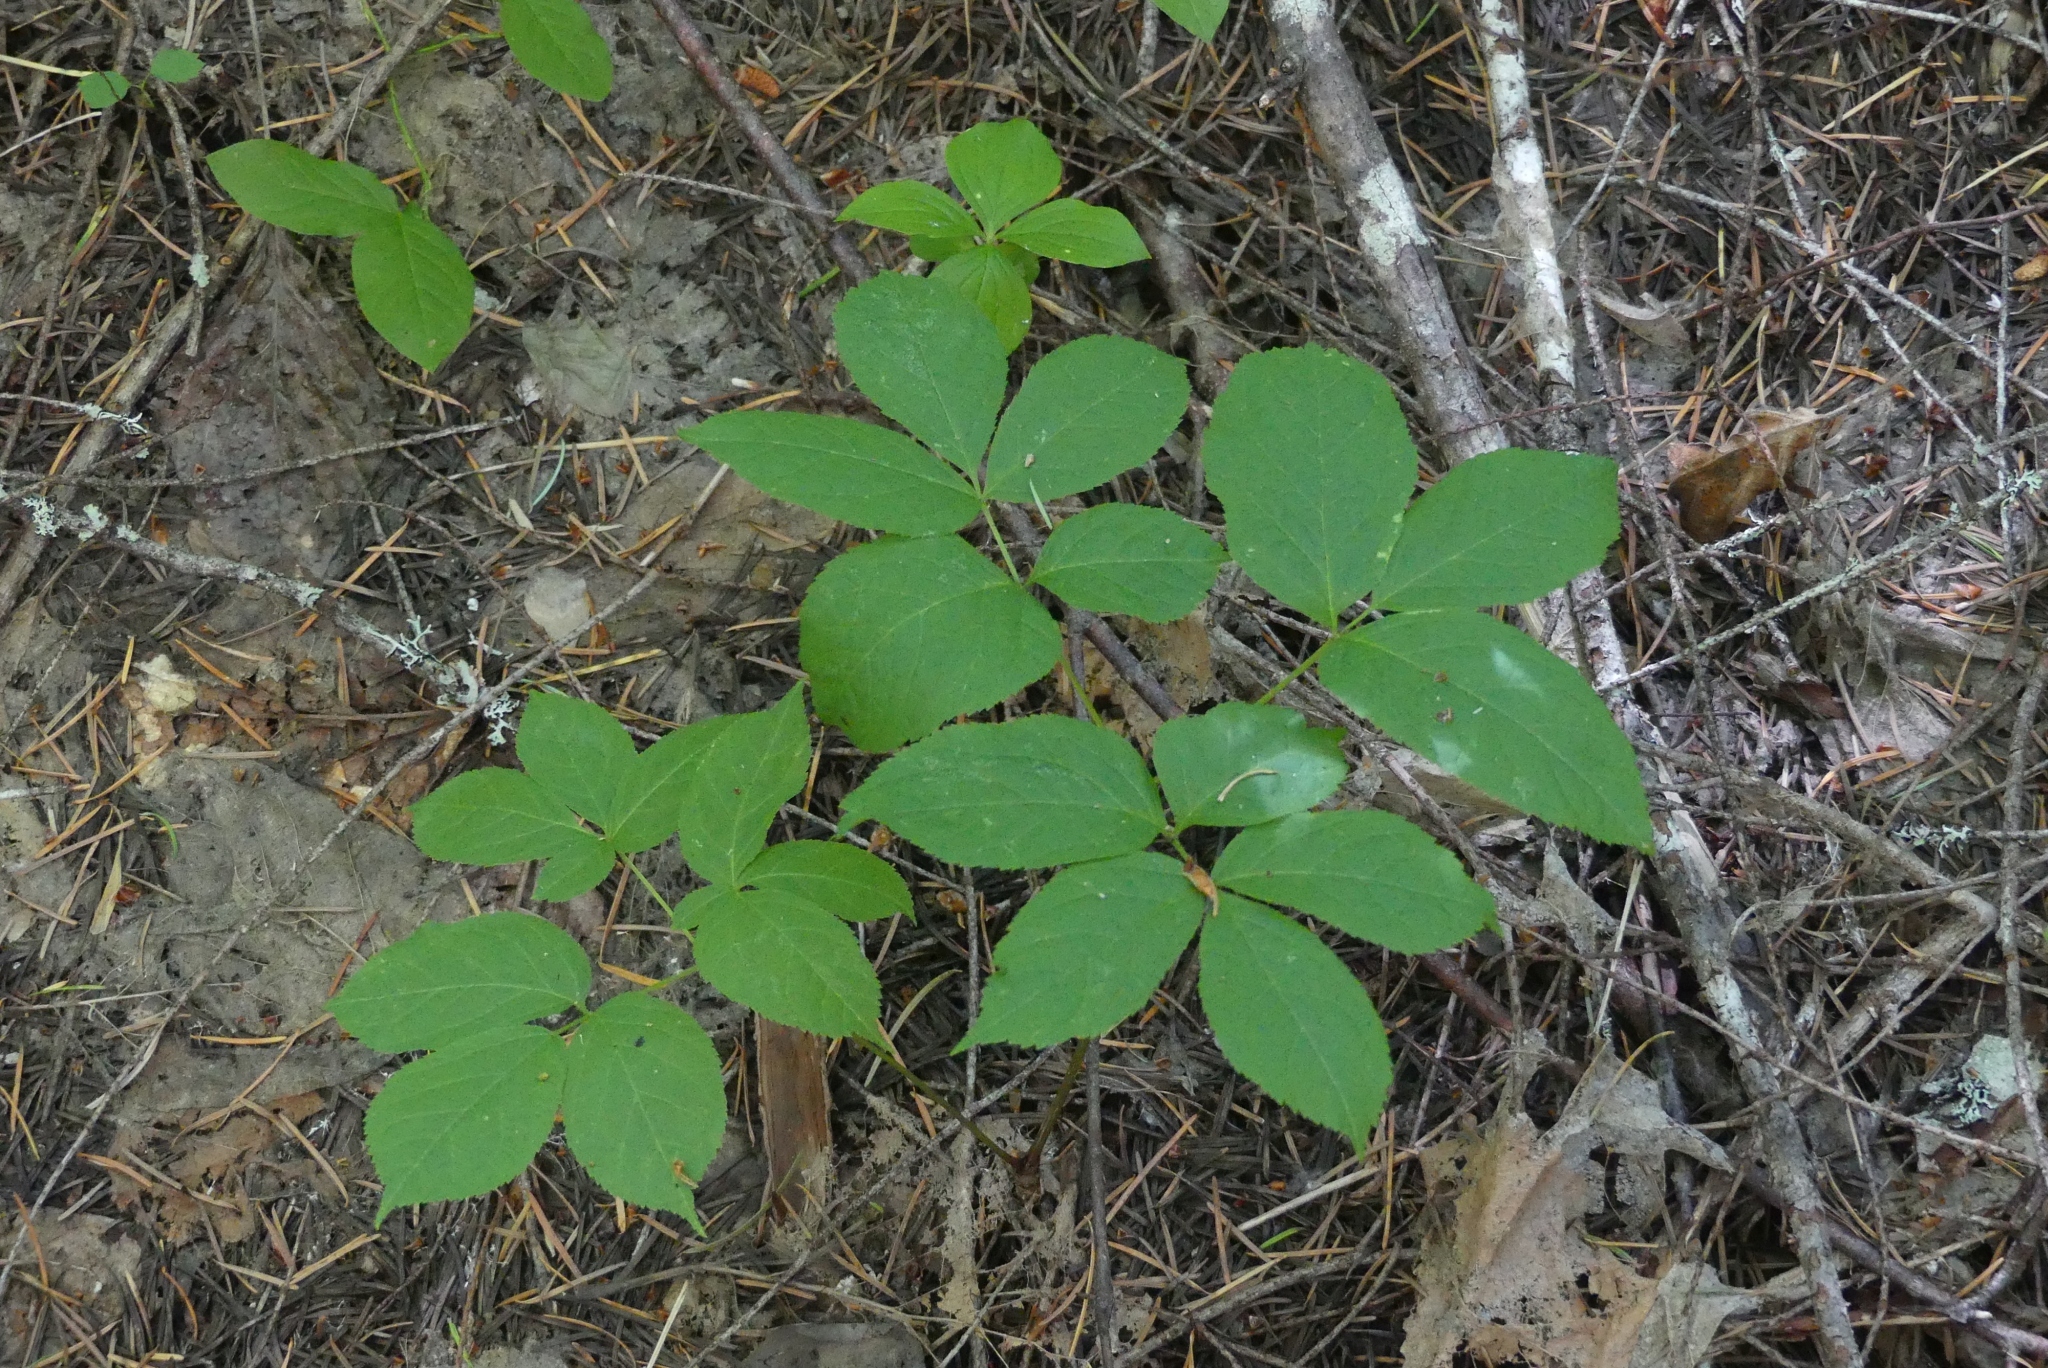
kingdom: Plantae
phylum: Tracheophyta
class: Magnoliopsida
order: Apiales
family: Araliaceae
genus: Aralia
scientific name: Aralia nudicaulis
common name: Wild sarsaparilla
